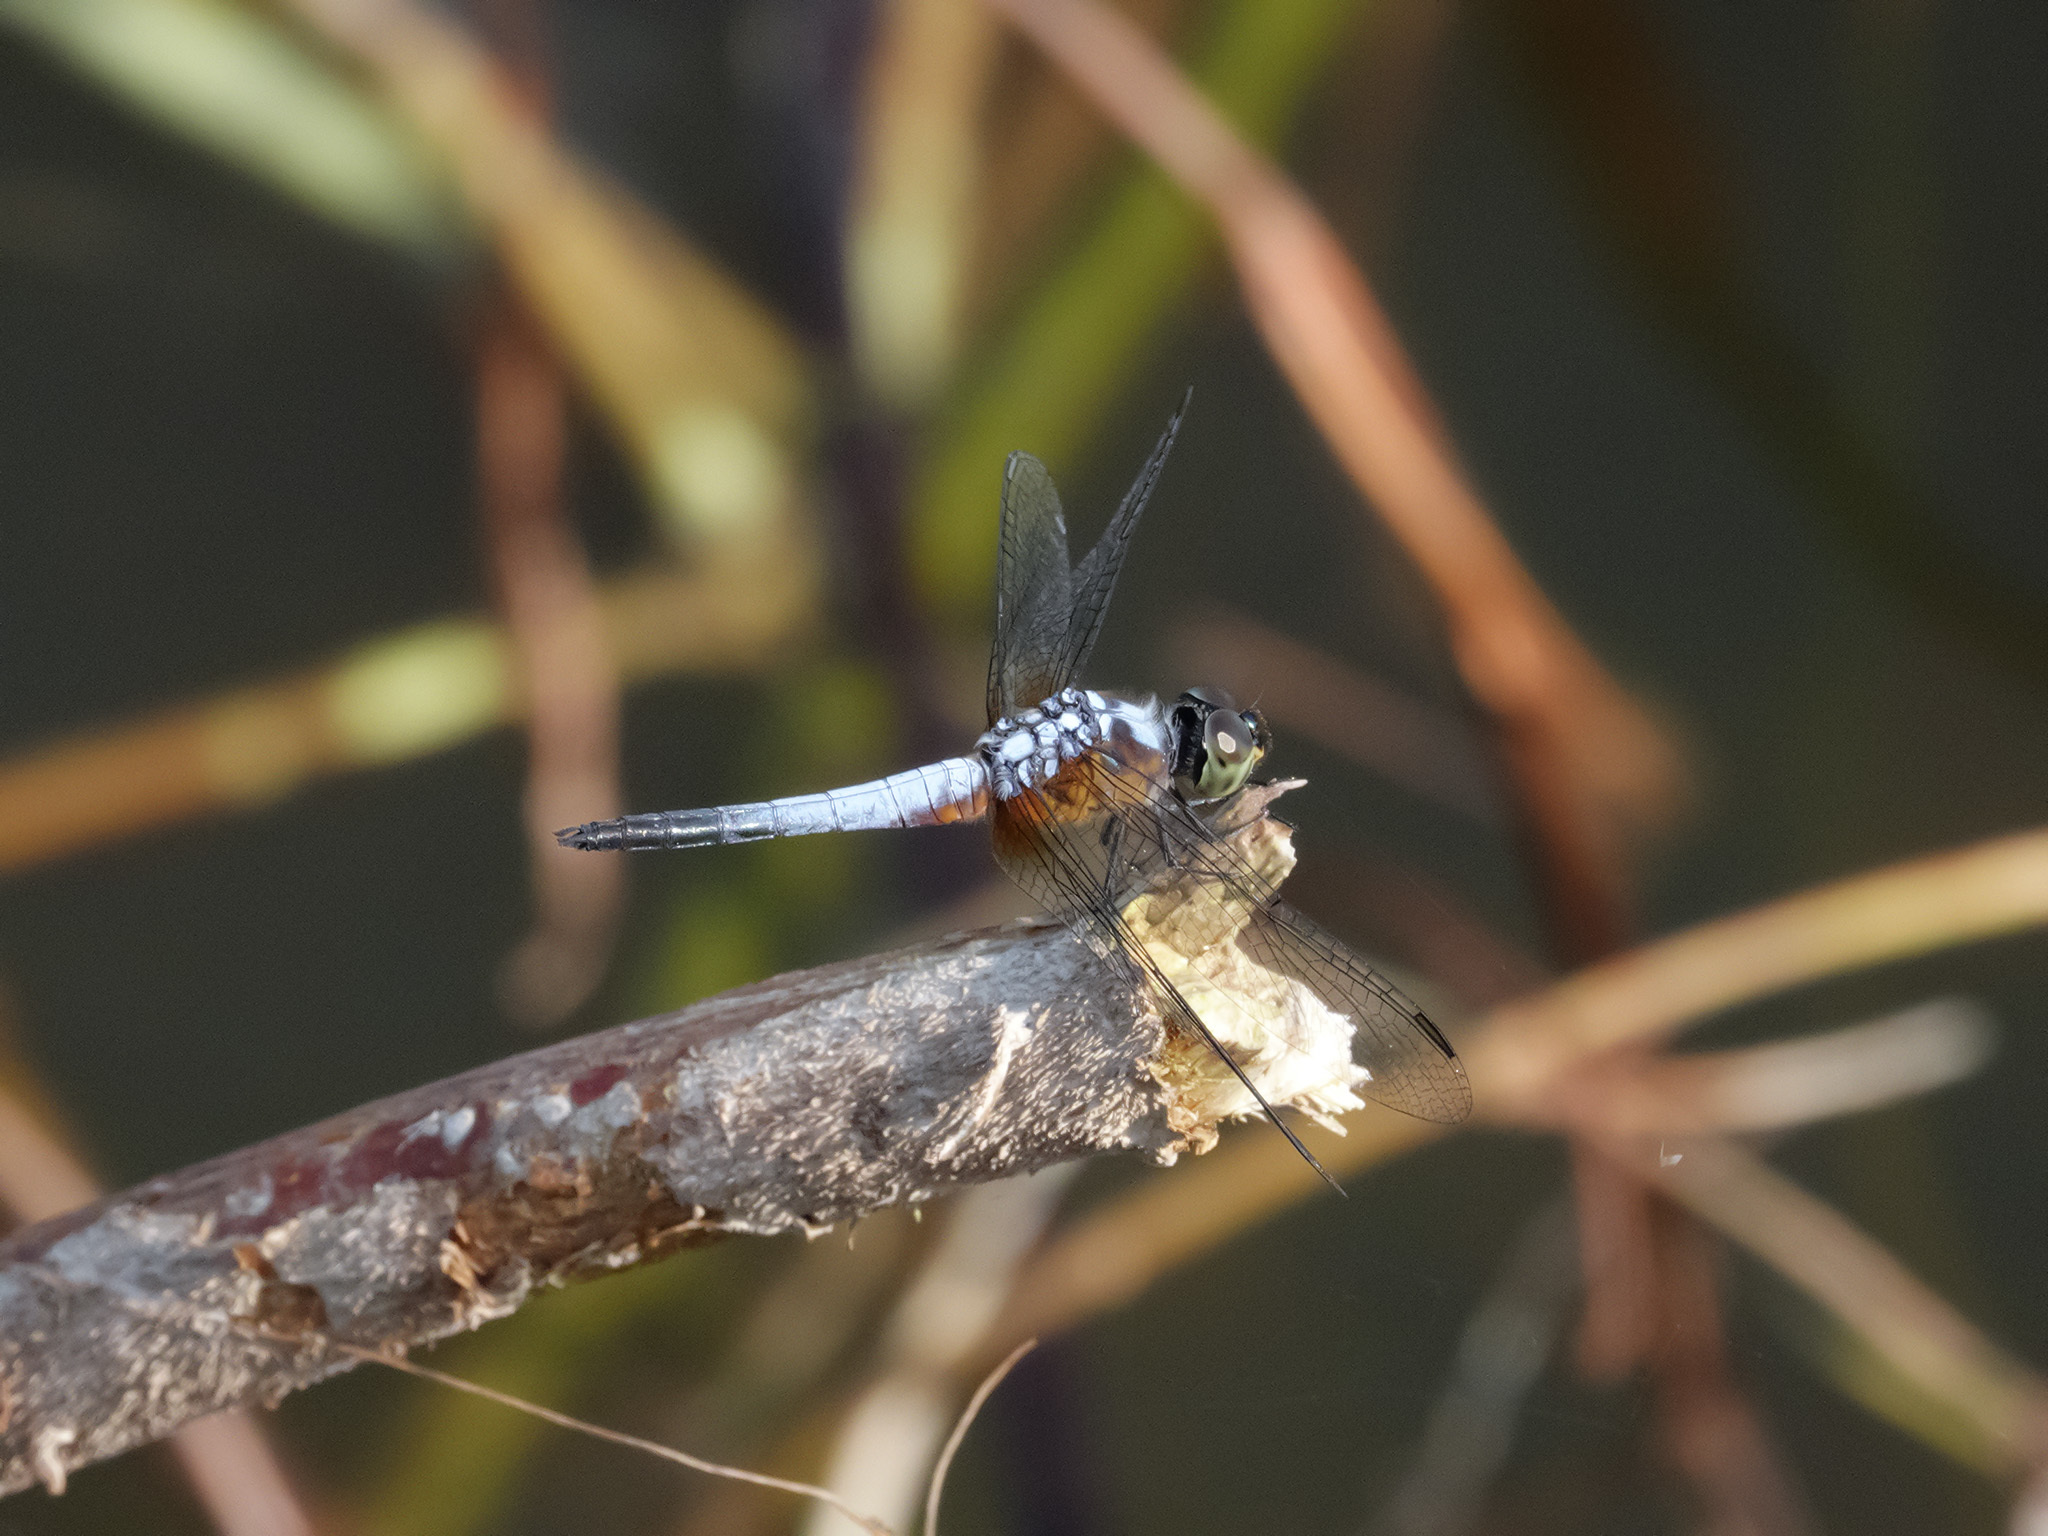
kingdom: Animalia
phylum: Arthropoda
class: Insecta
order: Odonata
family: Libellulidae
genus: Brachydiplax
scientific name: Brachydiplax chalybea
